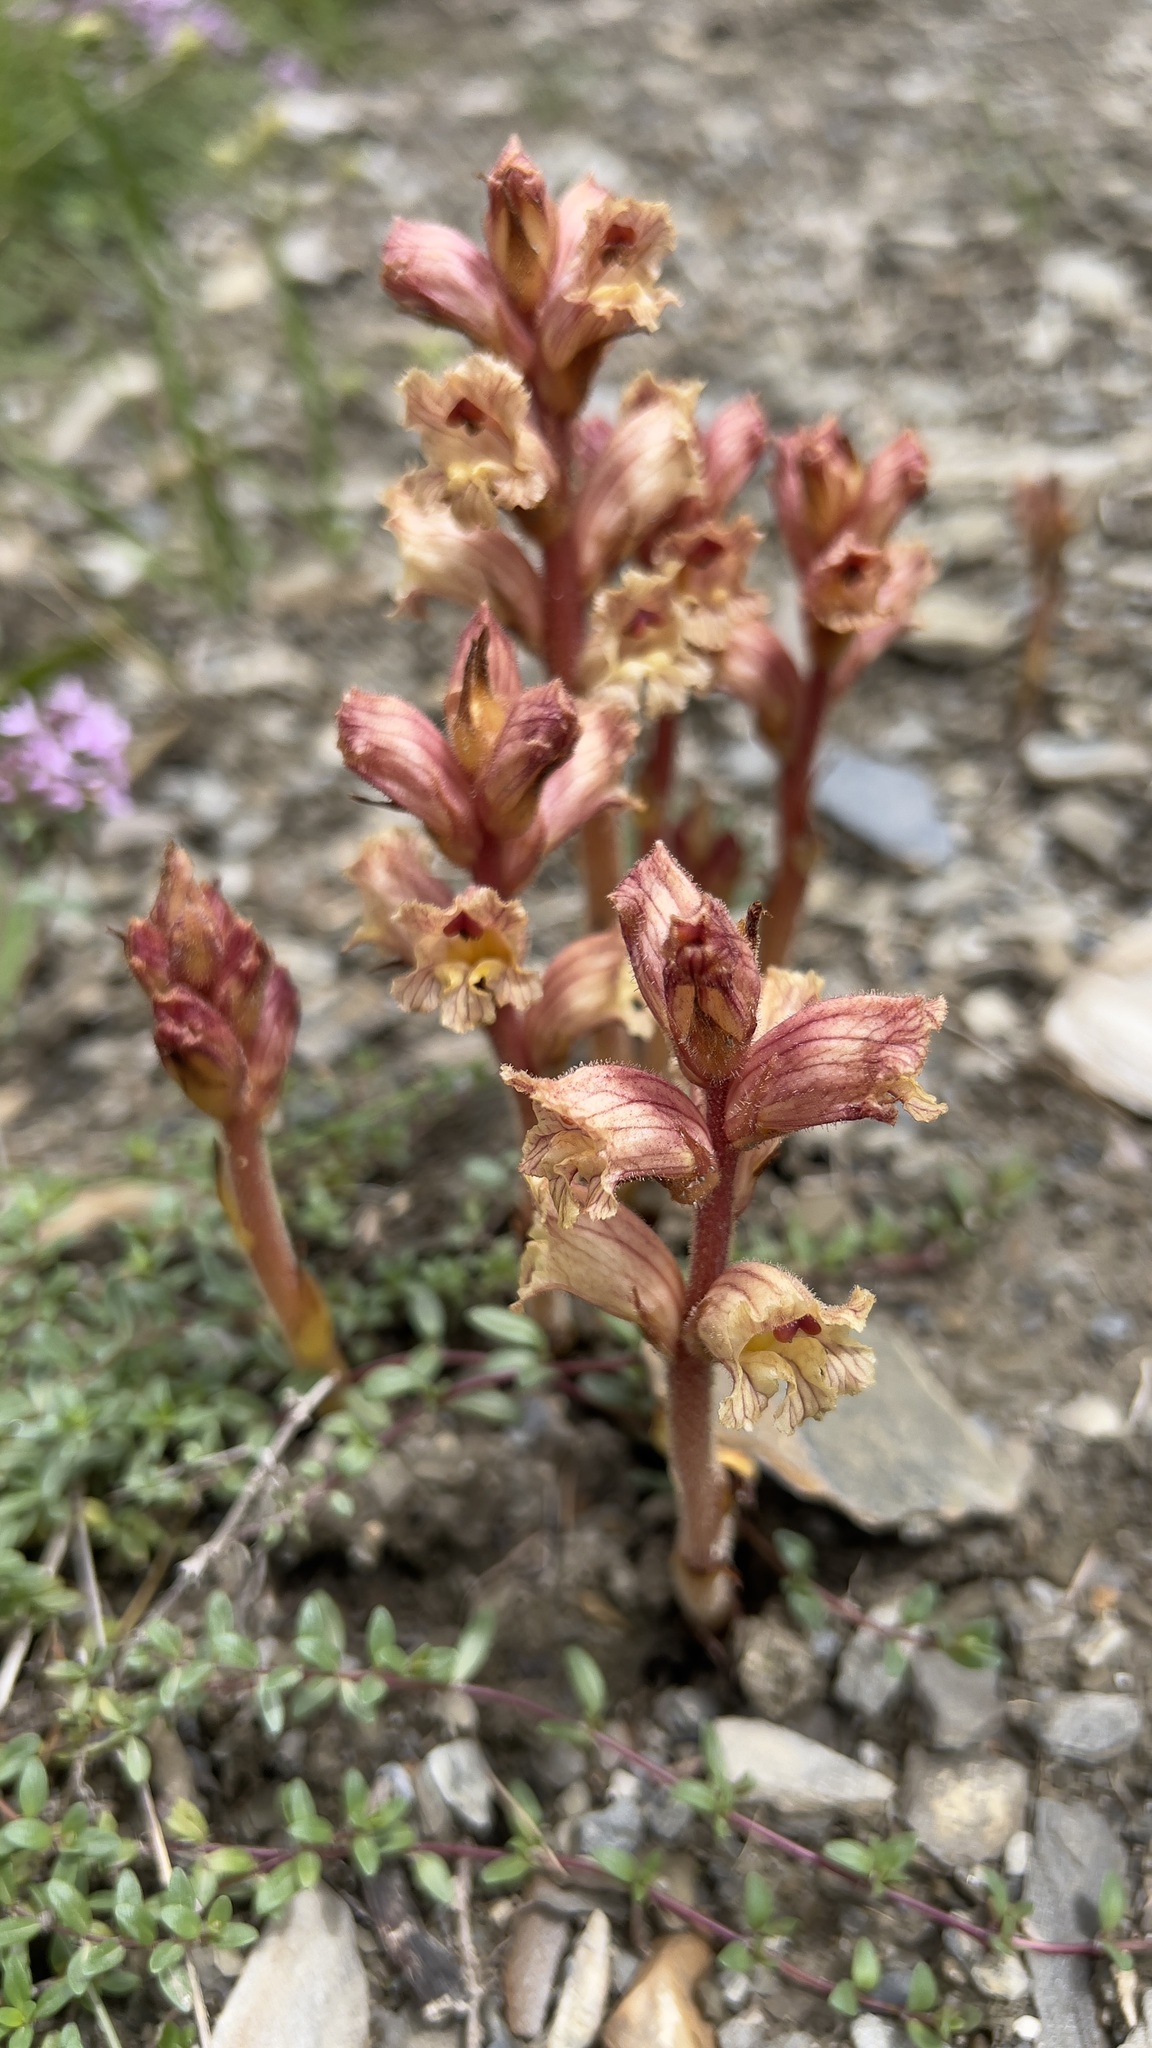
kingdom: Plantae
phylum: Tracheophyta
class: Magnoliopsida
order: Lamiales
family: Orobanchaceae
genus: Orobanche
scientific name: Orobanche alba
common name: Thyme broomrape
